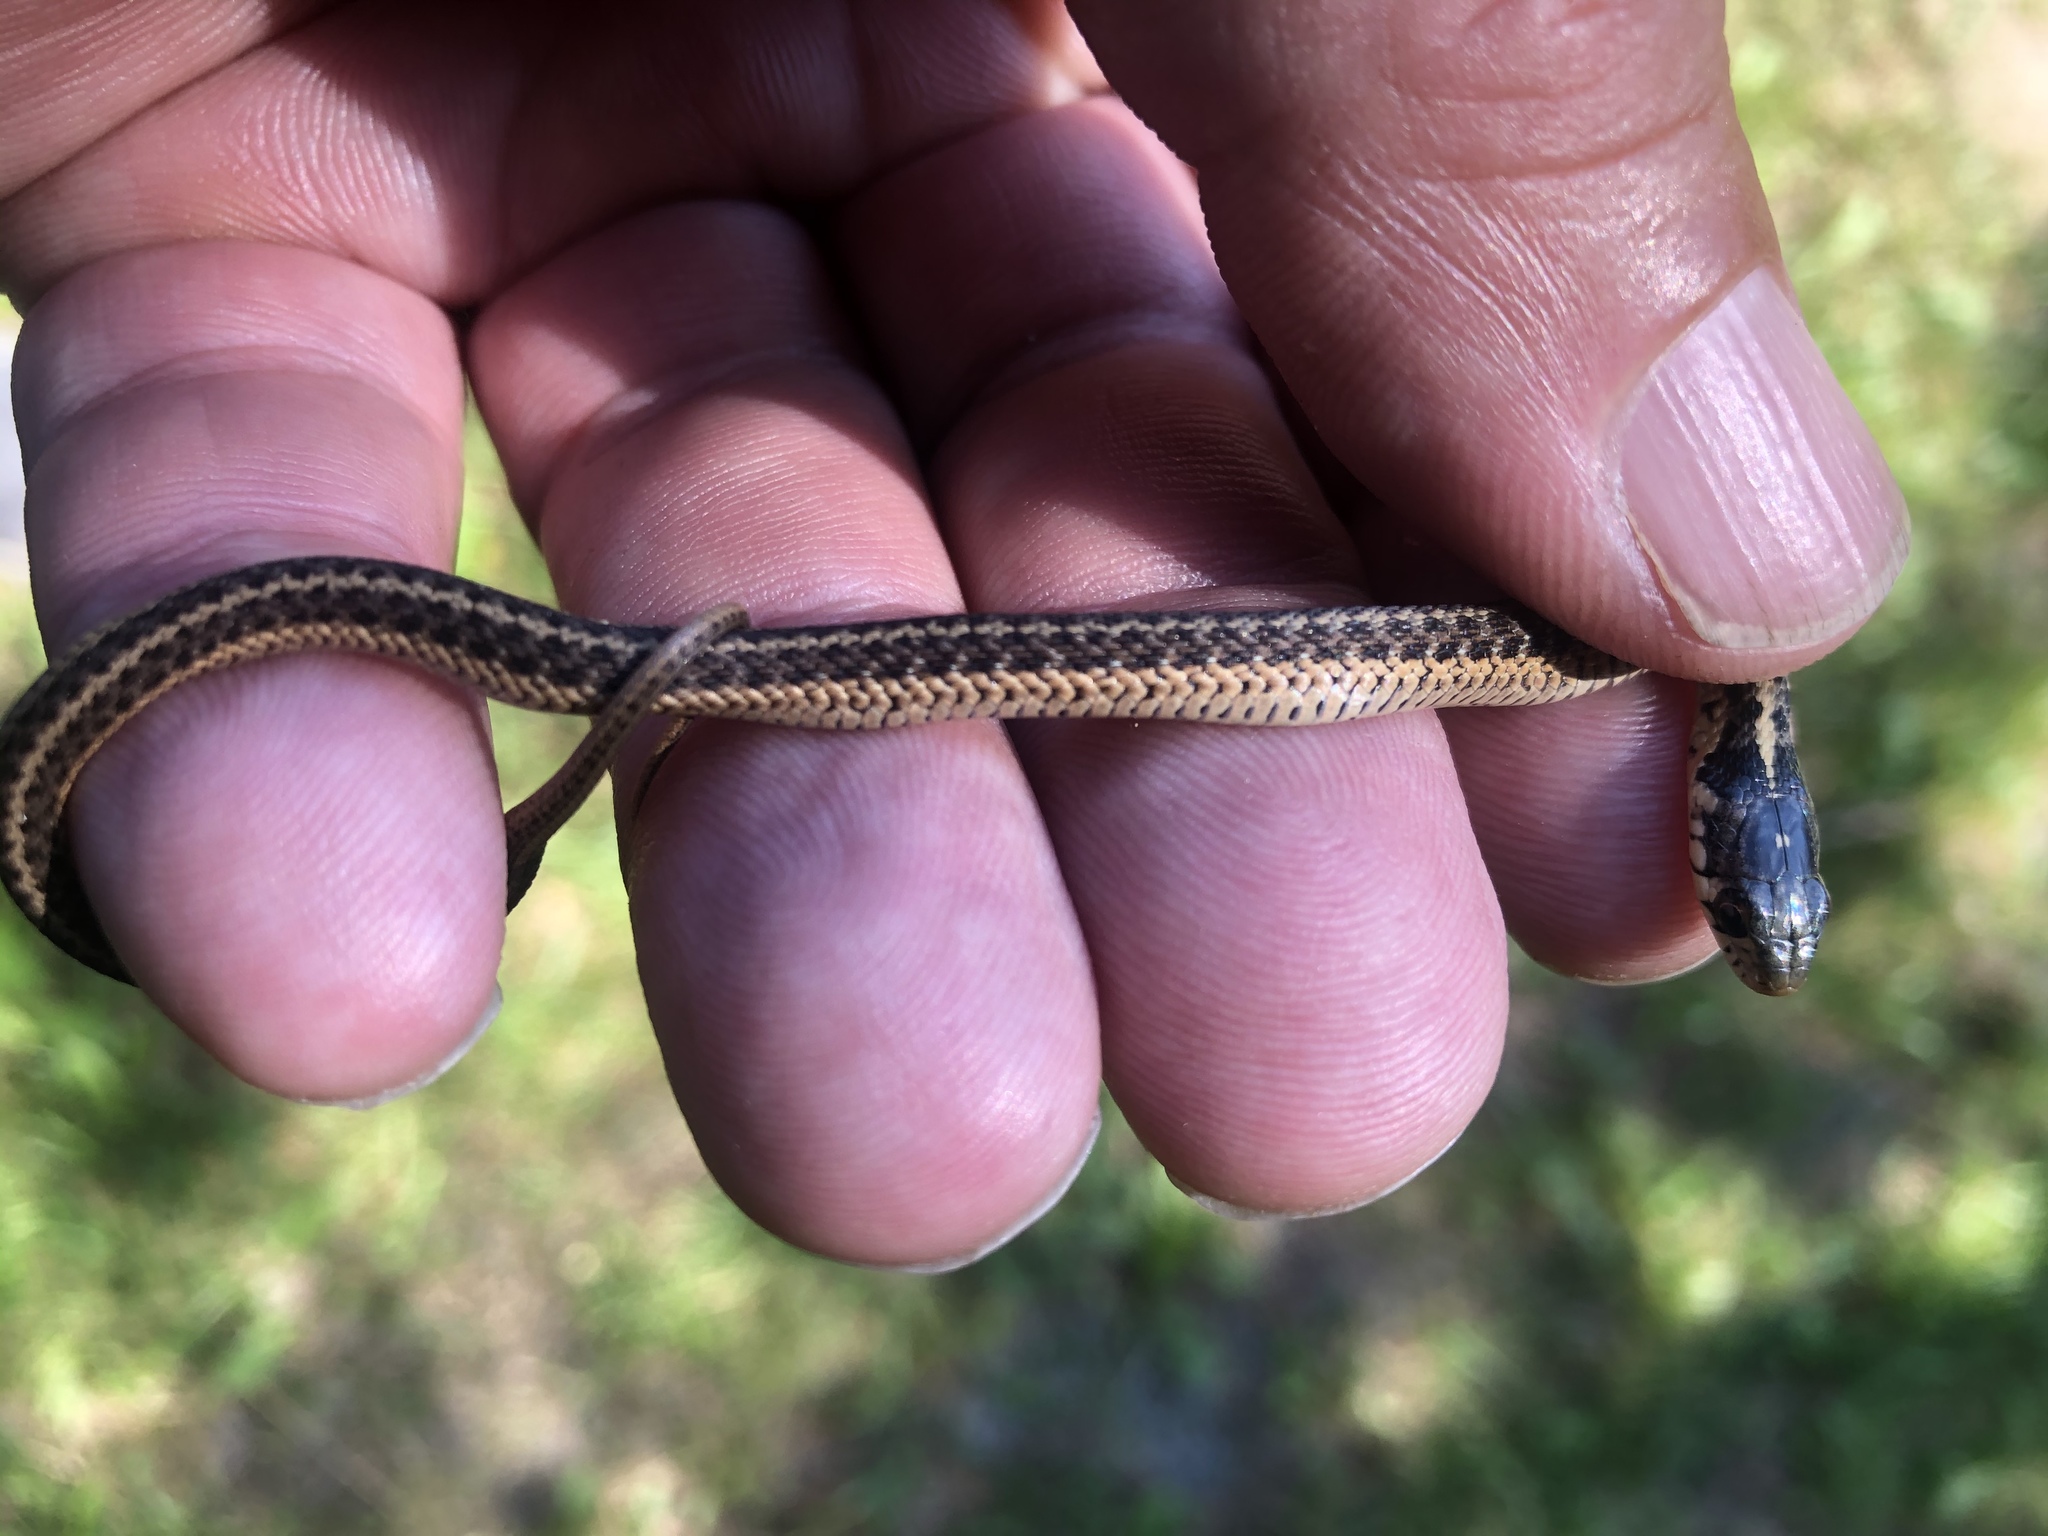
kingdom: Animalia
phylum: Chordata
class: Squamata
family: Colubridae
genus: Thamnophis
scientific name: Thamnophis sirtalis
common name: Common garter snake
